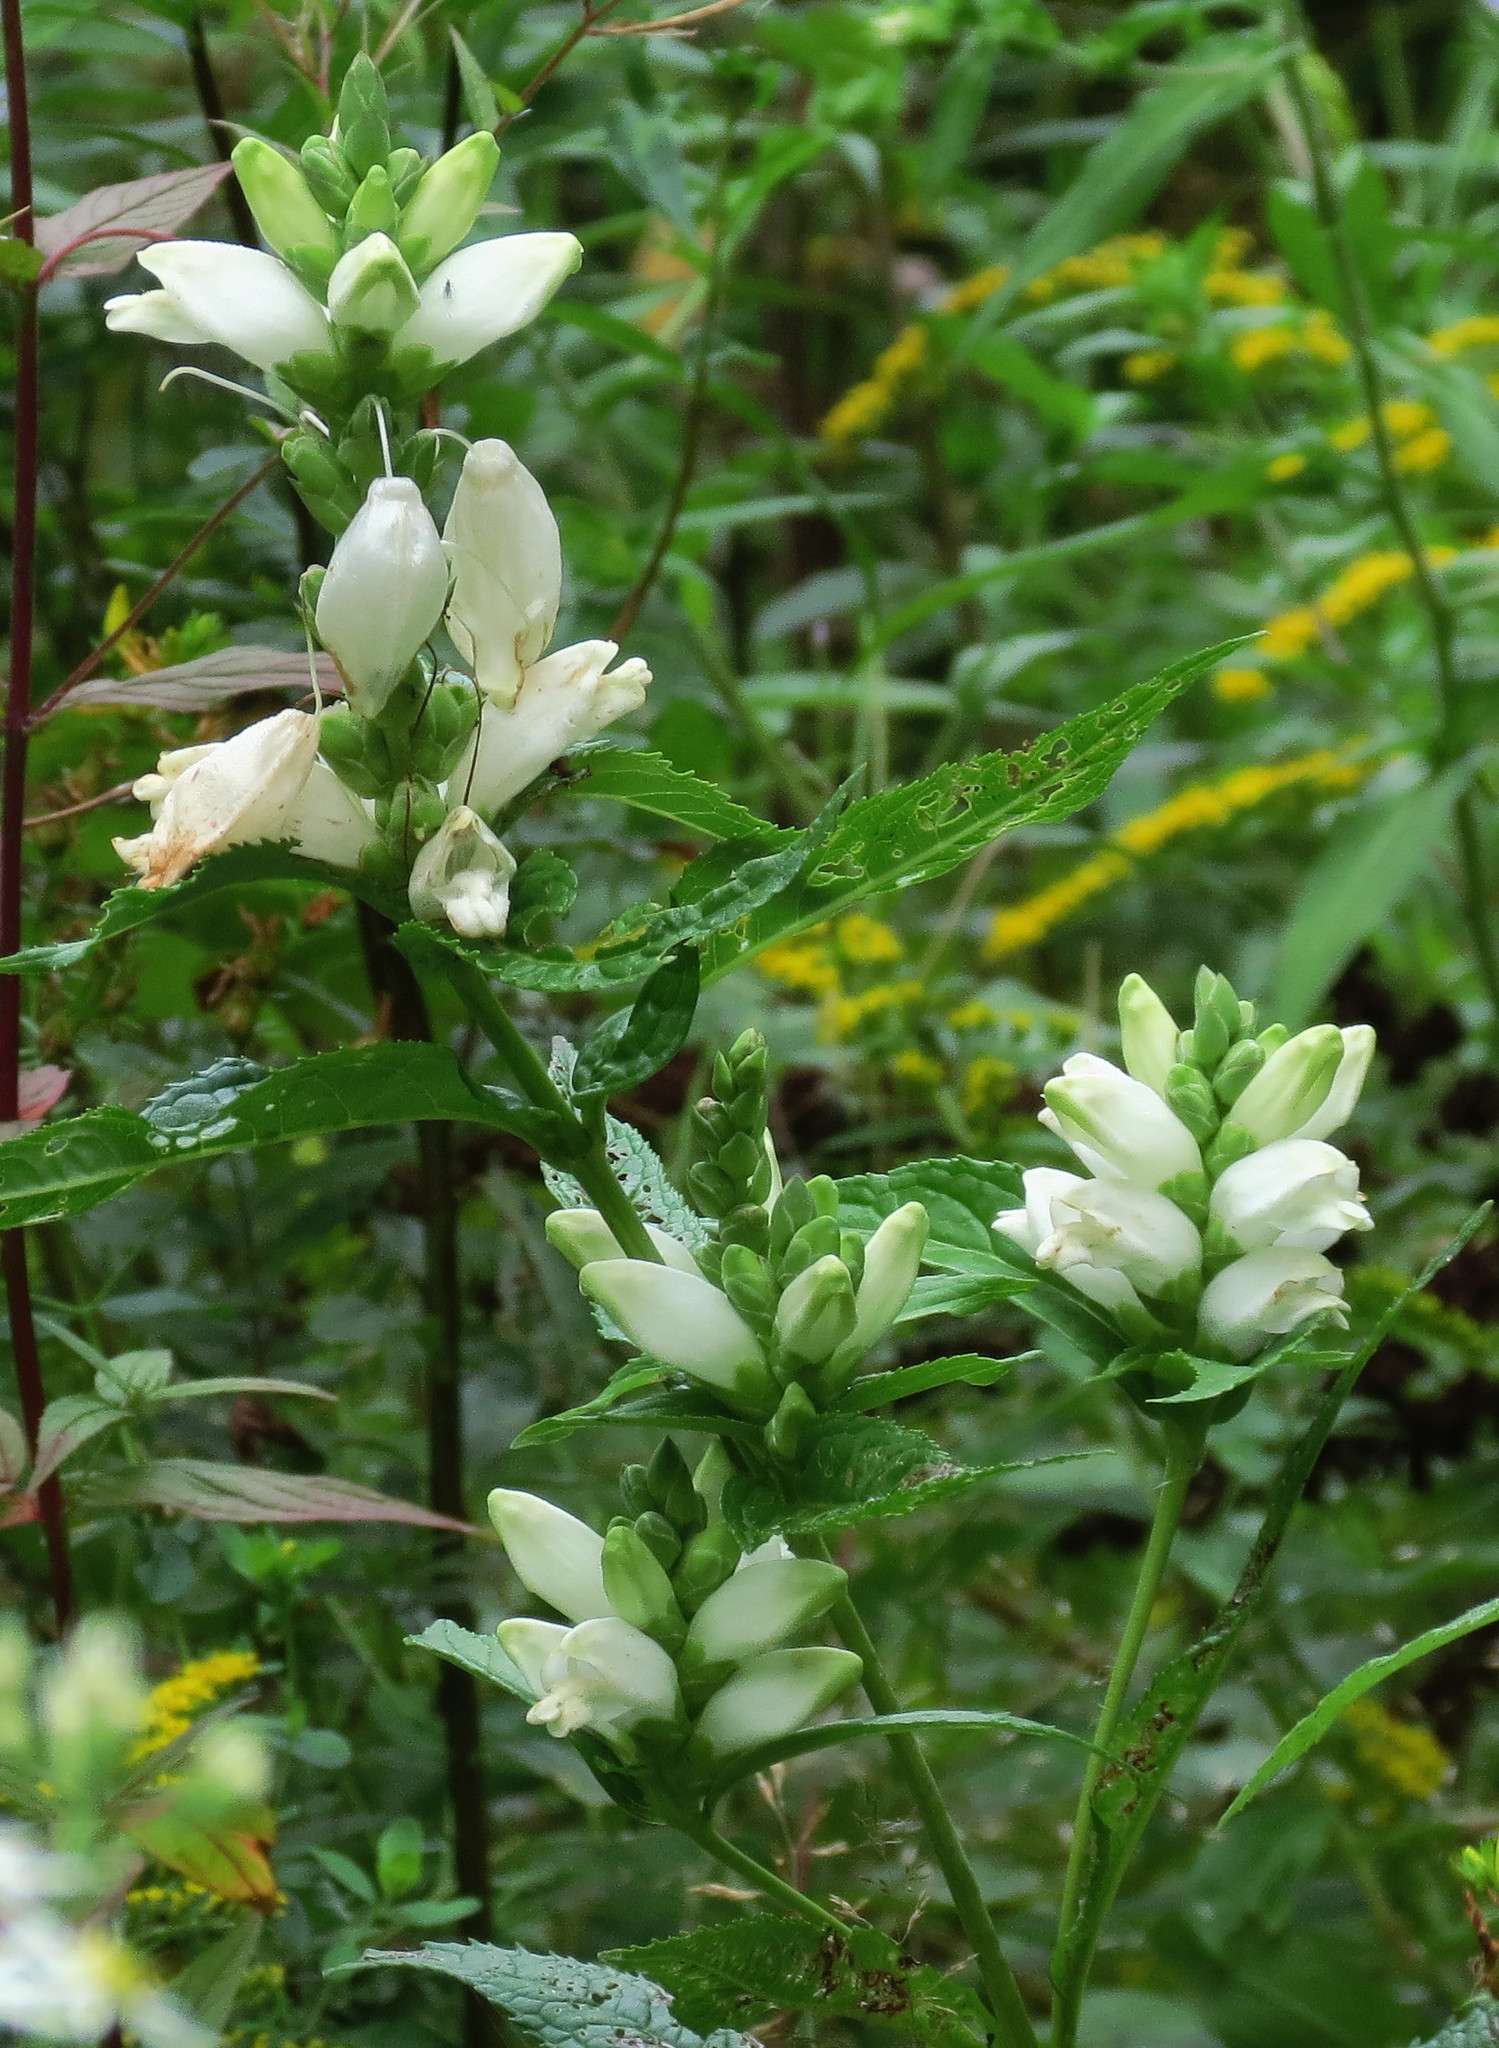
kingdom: Plantae
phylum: Tracheophyta
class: Magnoliopsida
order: Lamiales
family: Plantaginaceae
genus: Chelone
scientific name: Chelone glabra
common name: Snakehead
